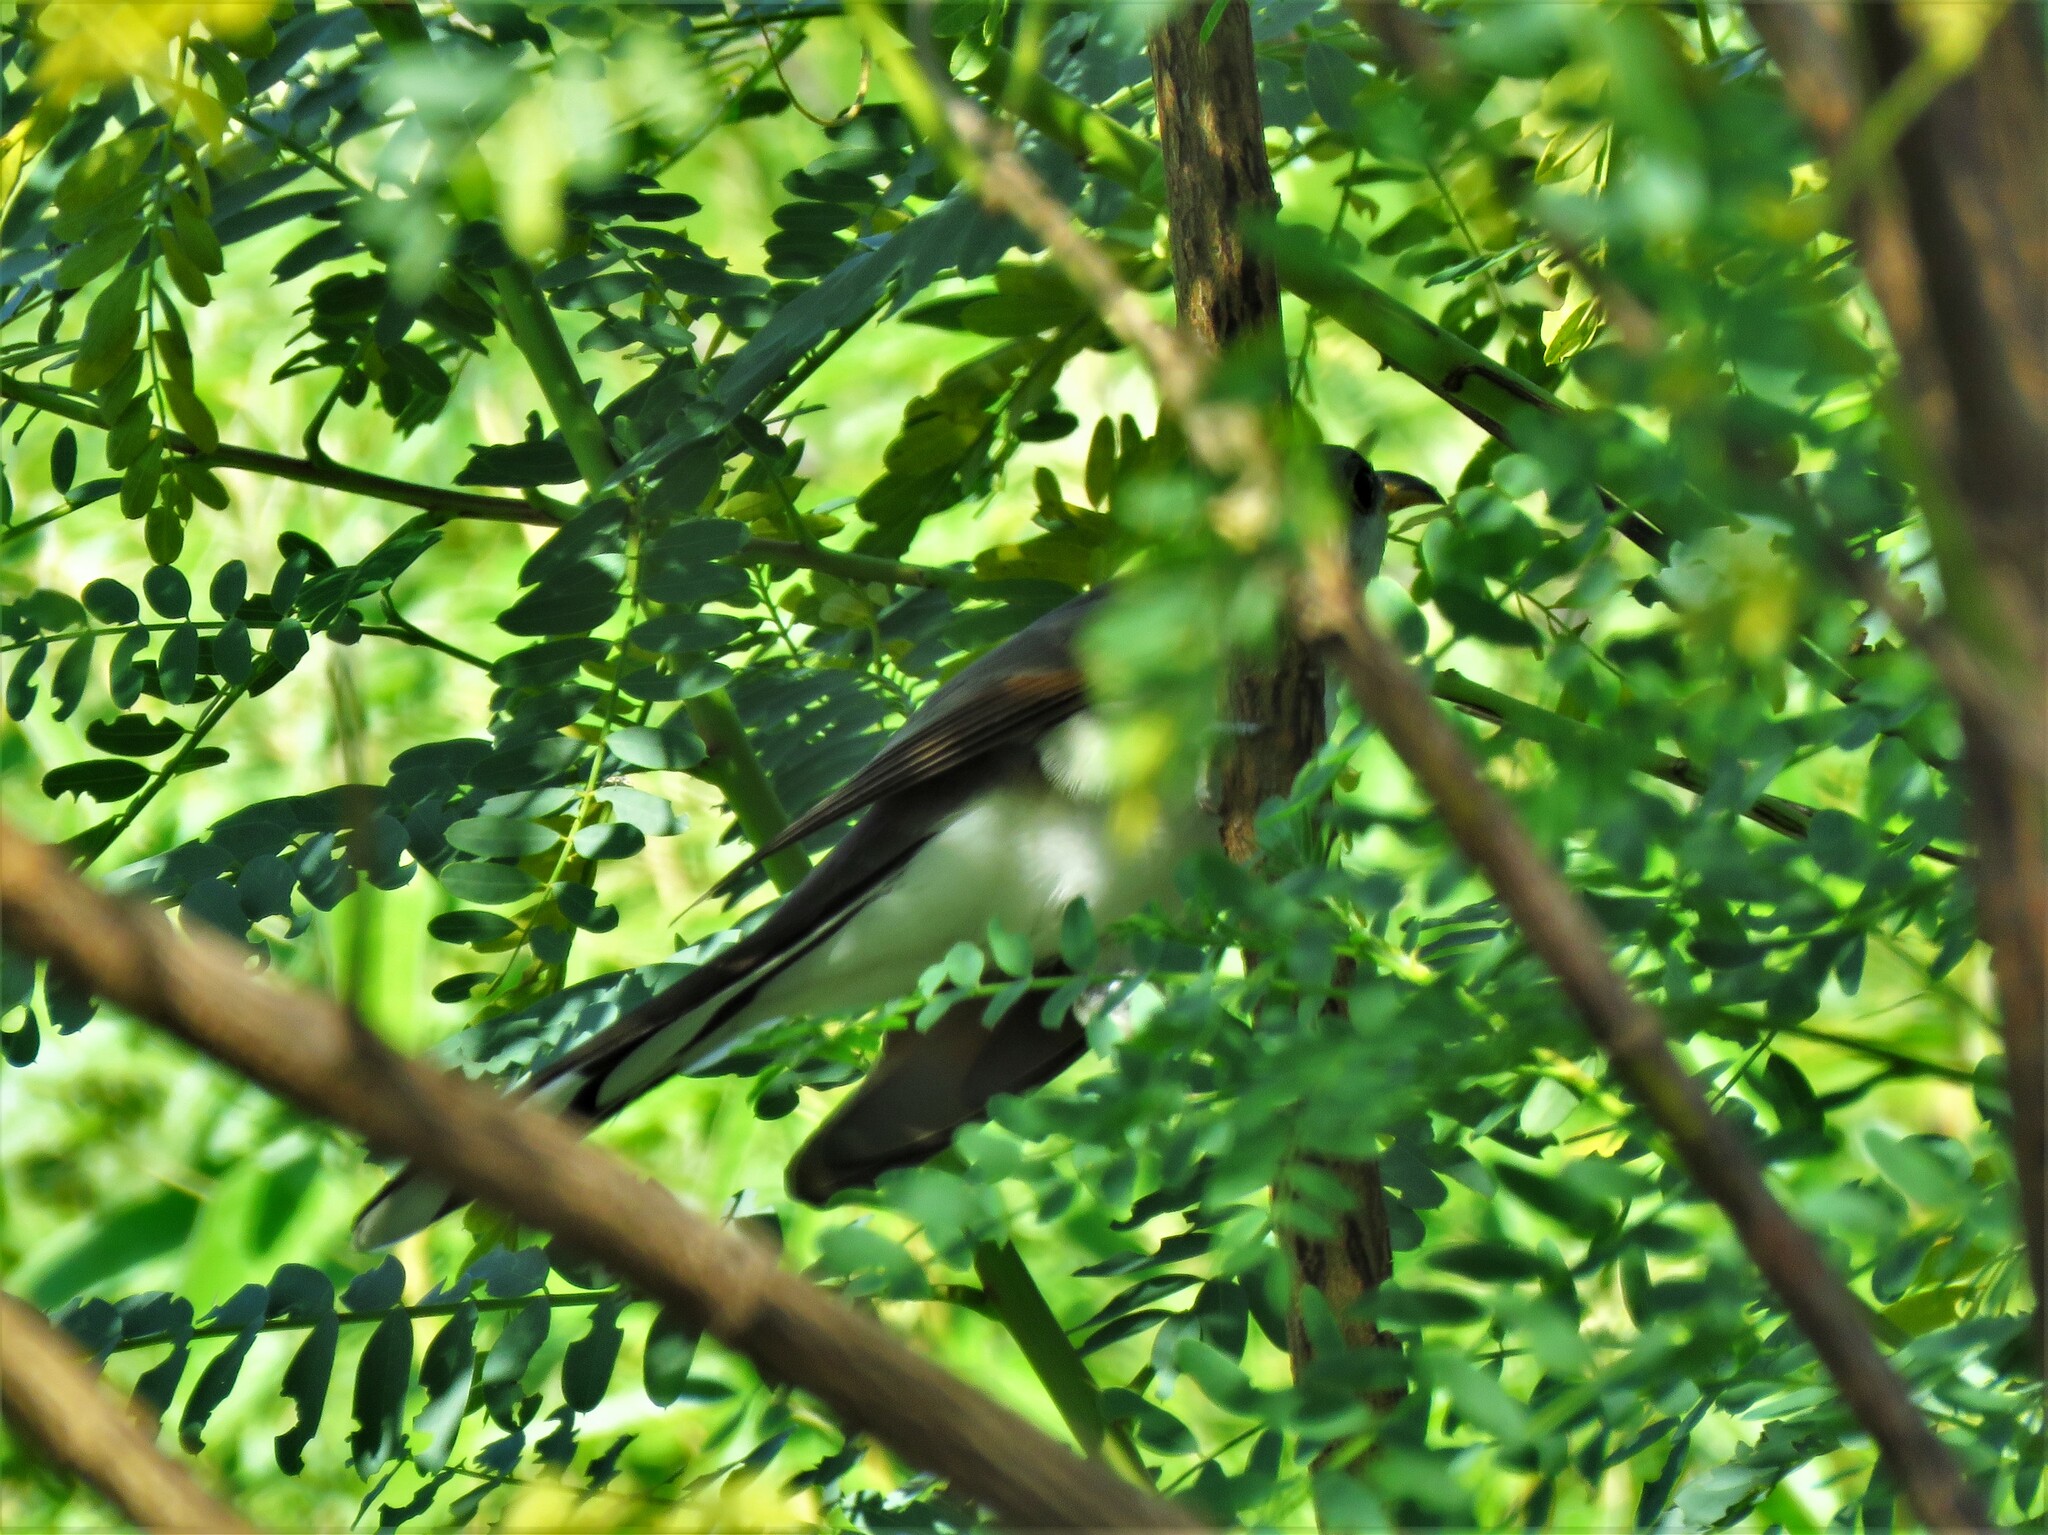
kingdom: Animalia
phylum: Chordata
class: Aves
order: Cuculiformes
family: Cuculidae
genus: Coccyzus
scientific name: Coccyzus americanus
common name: Yellow-billed cuckoo
